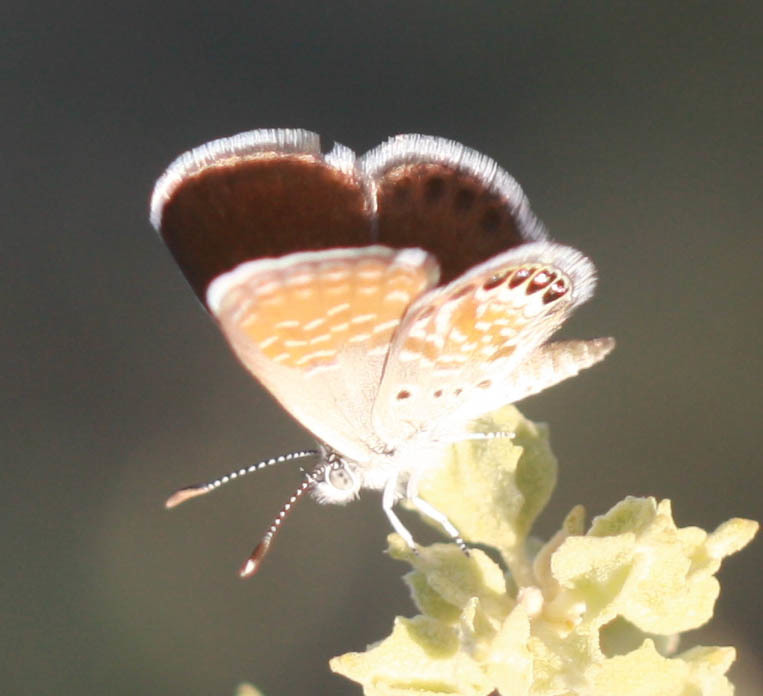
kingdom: Animalia
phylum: Arthropoda
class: Insecta
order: Lepidoptera
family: Lycaenidae
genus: Brephidium
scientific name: Brephidium exilis
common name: Pygmy blue
